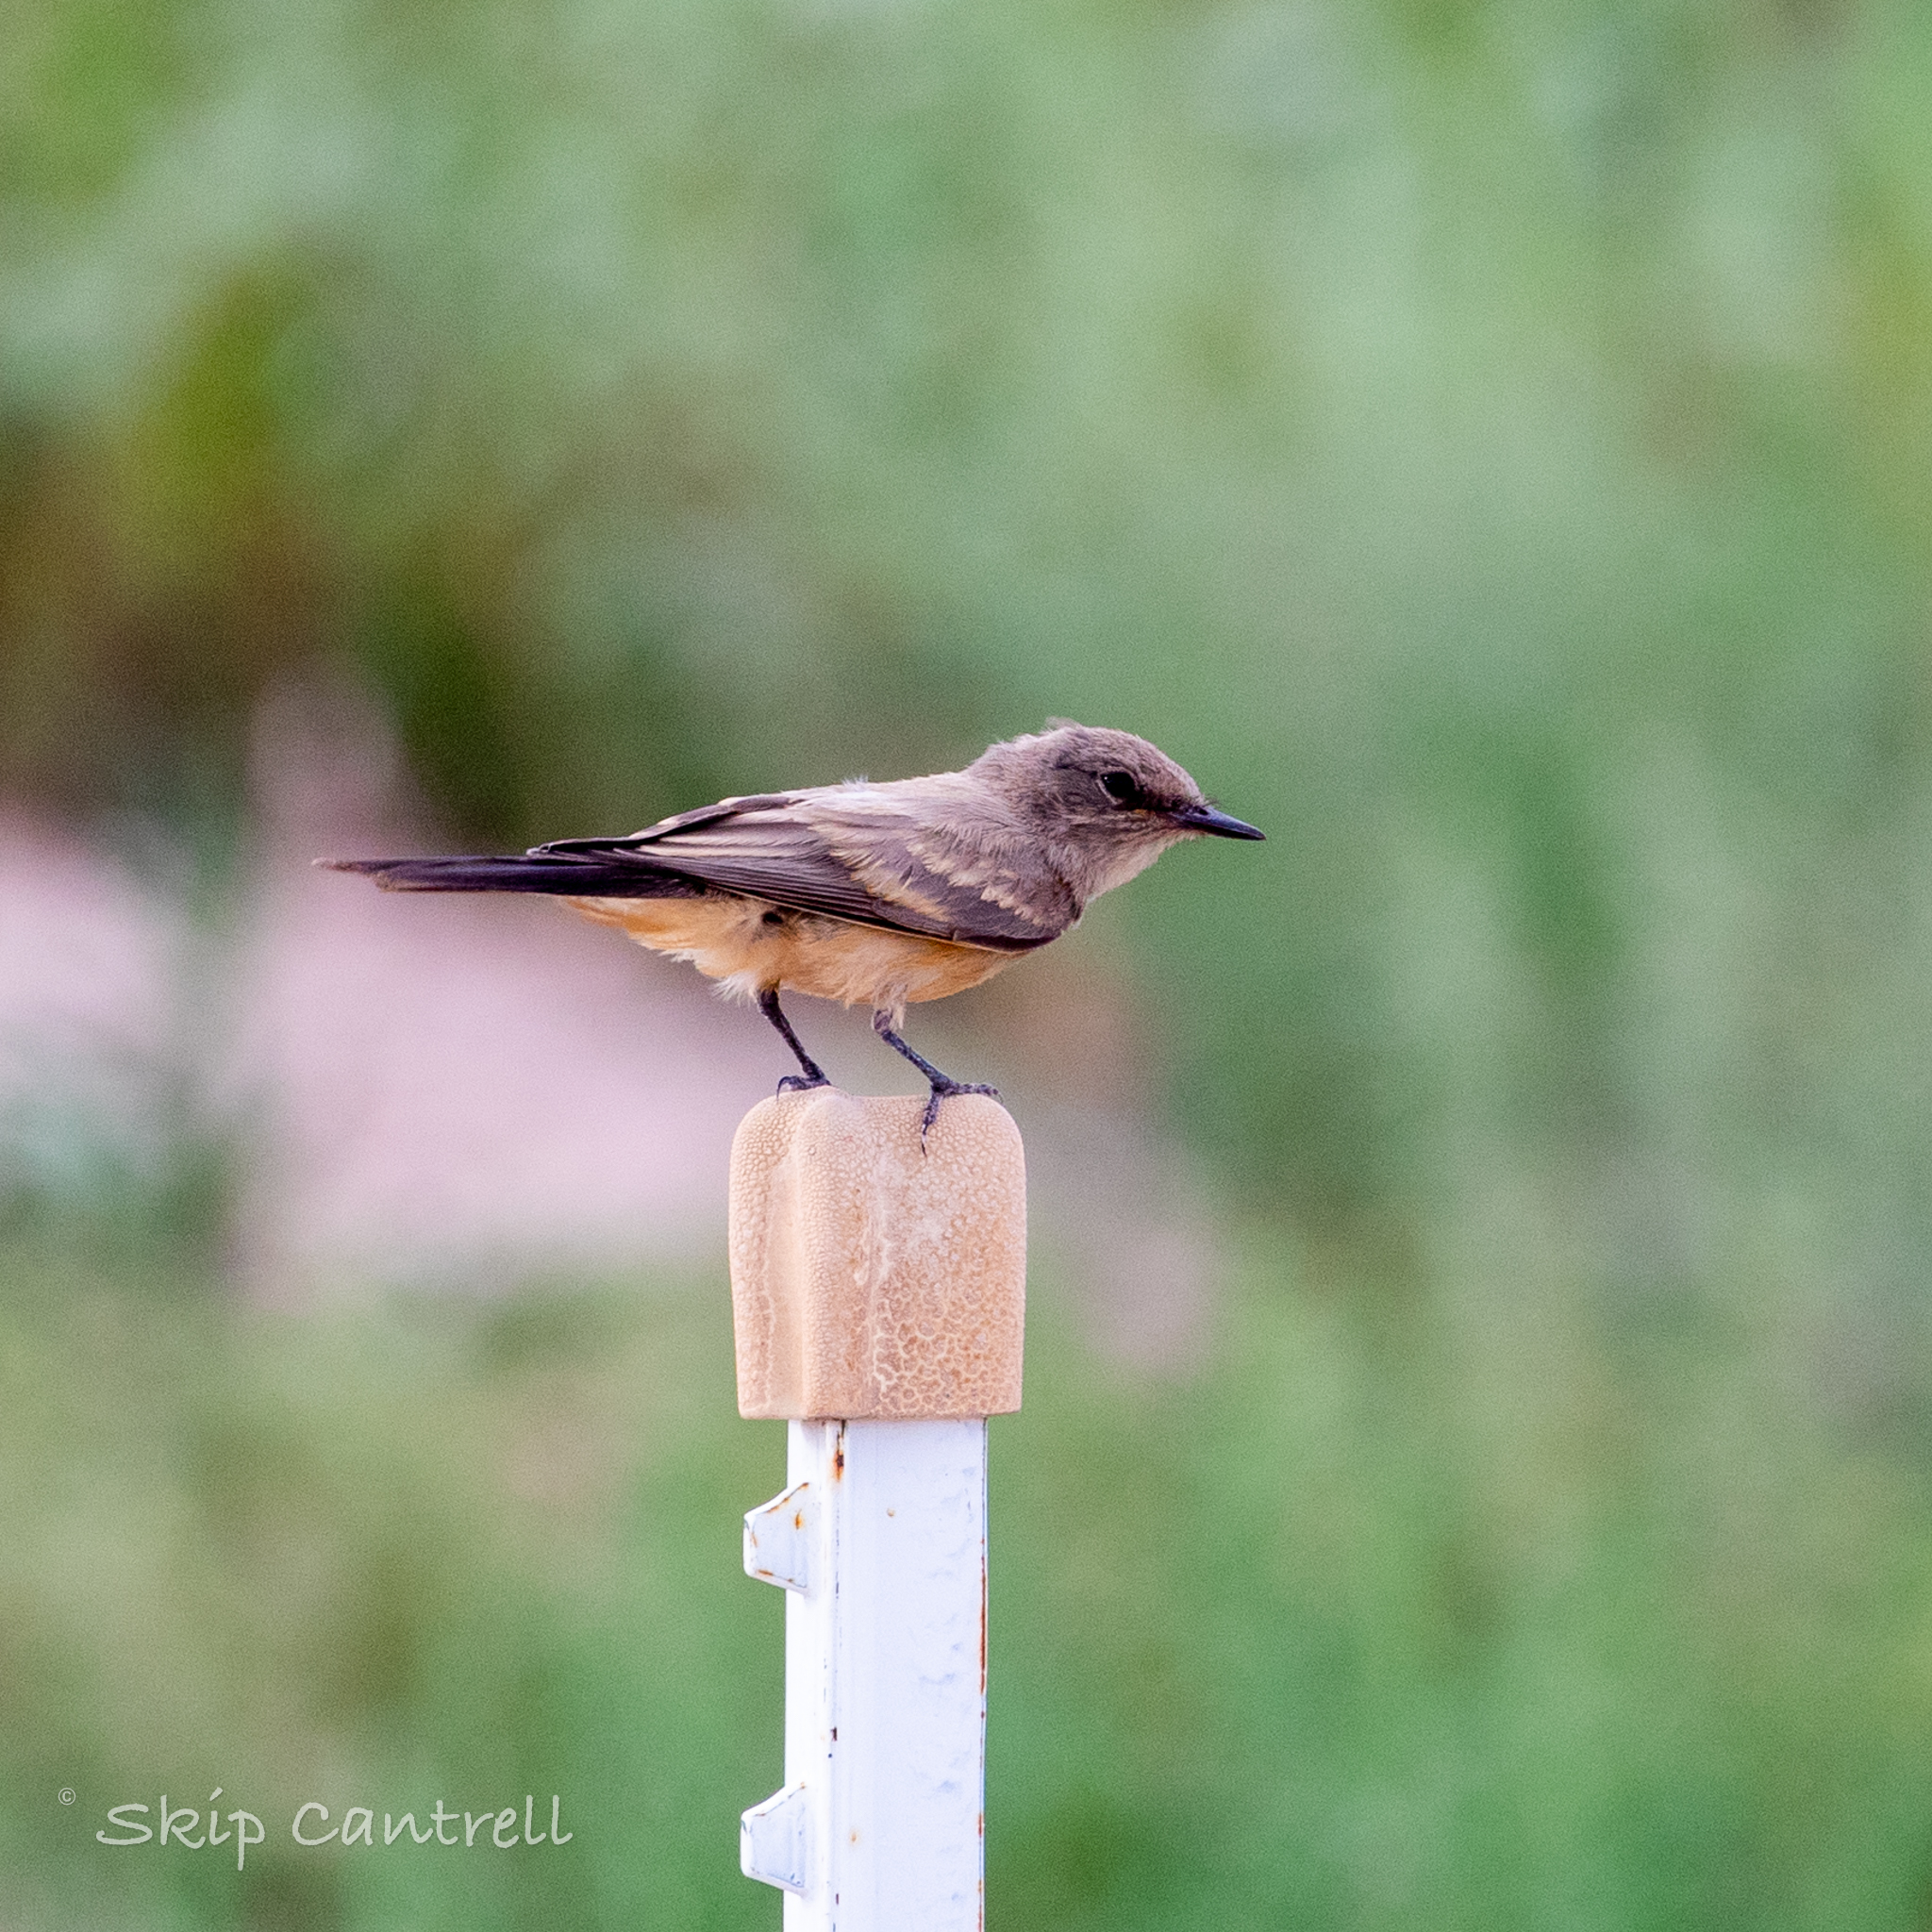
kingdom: Animalia
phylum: Chordata
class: Aves
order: Passeriformes
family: Tyrannidae
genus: Sayornis
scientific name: Sayornis saya
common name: Say's phoebe
